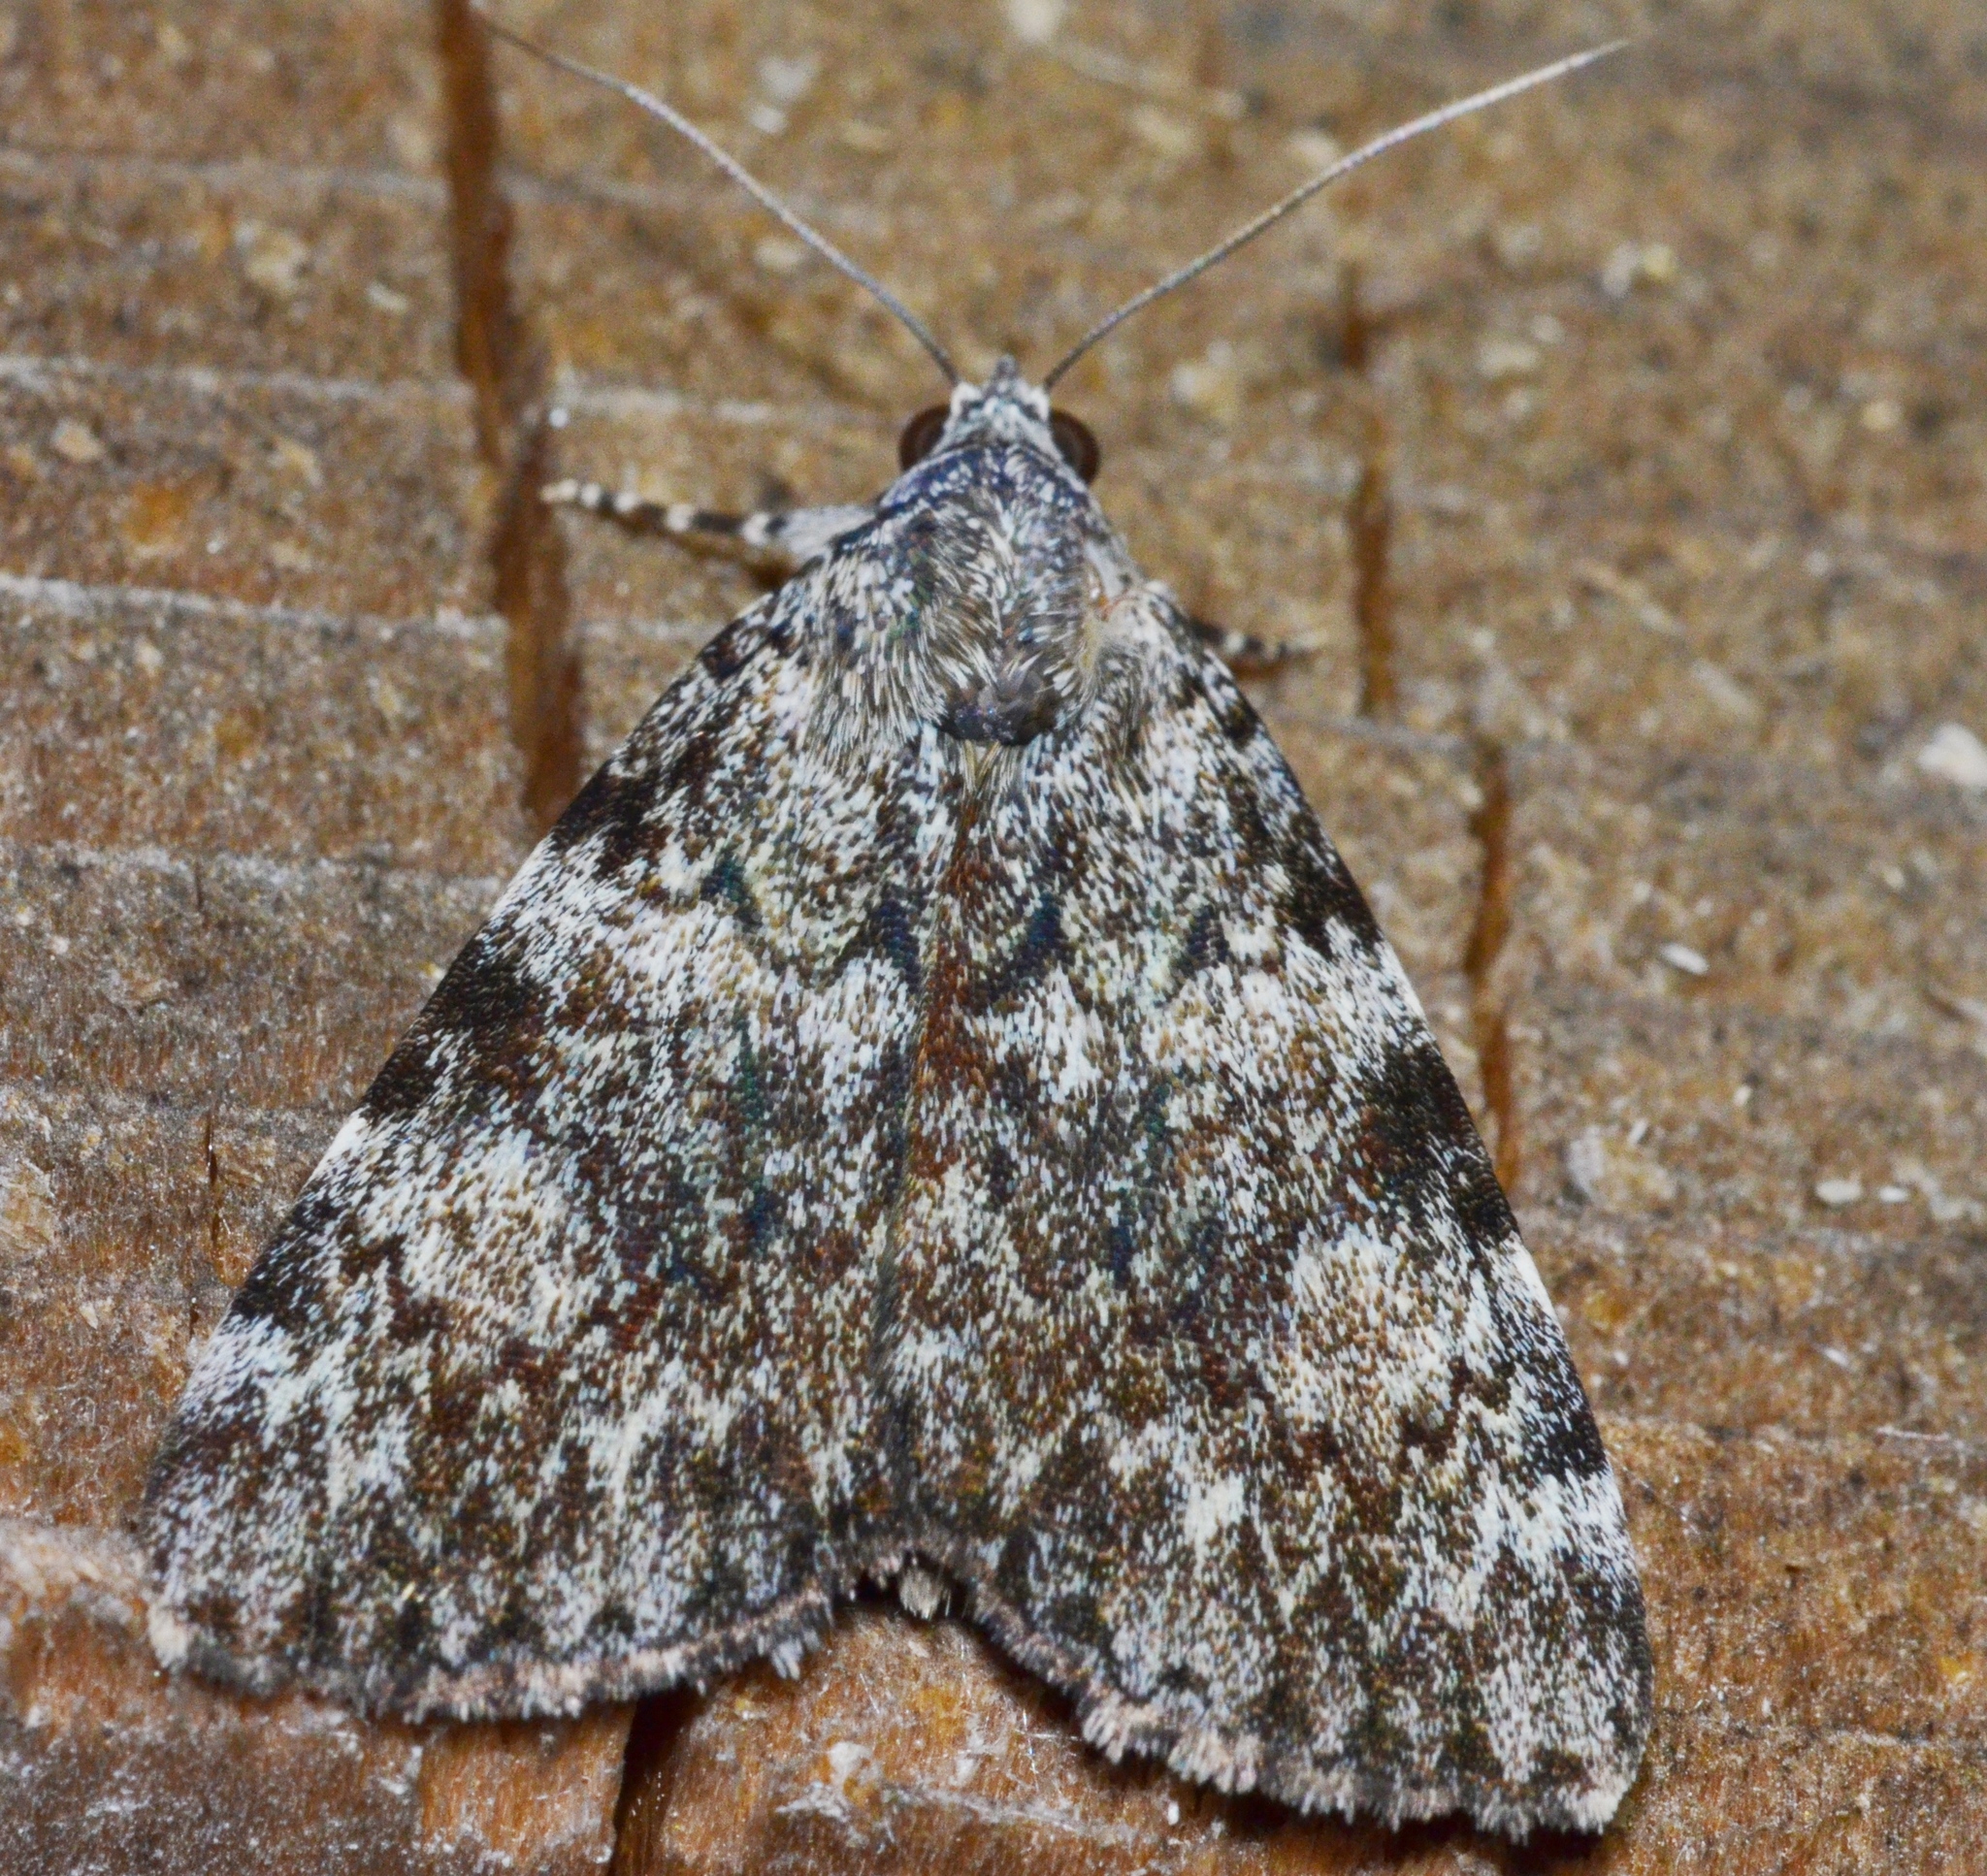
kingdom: Animalia
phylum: Arthropoda
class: Insecta
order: Lepidoptera
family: Erebidae
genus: Catocala
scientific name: Catocala lineella
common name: Little lined underwing
